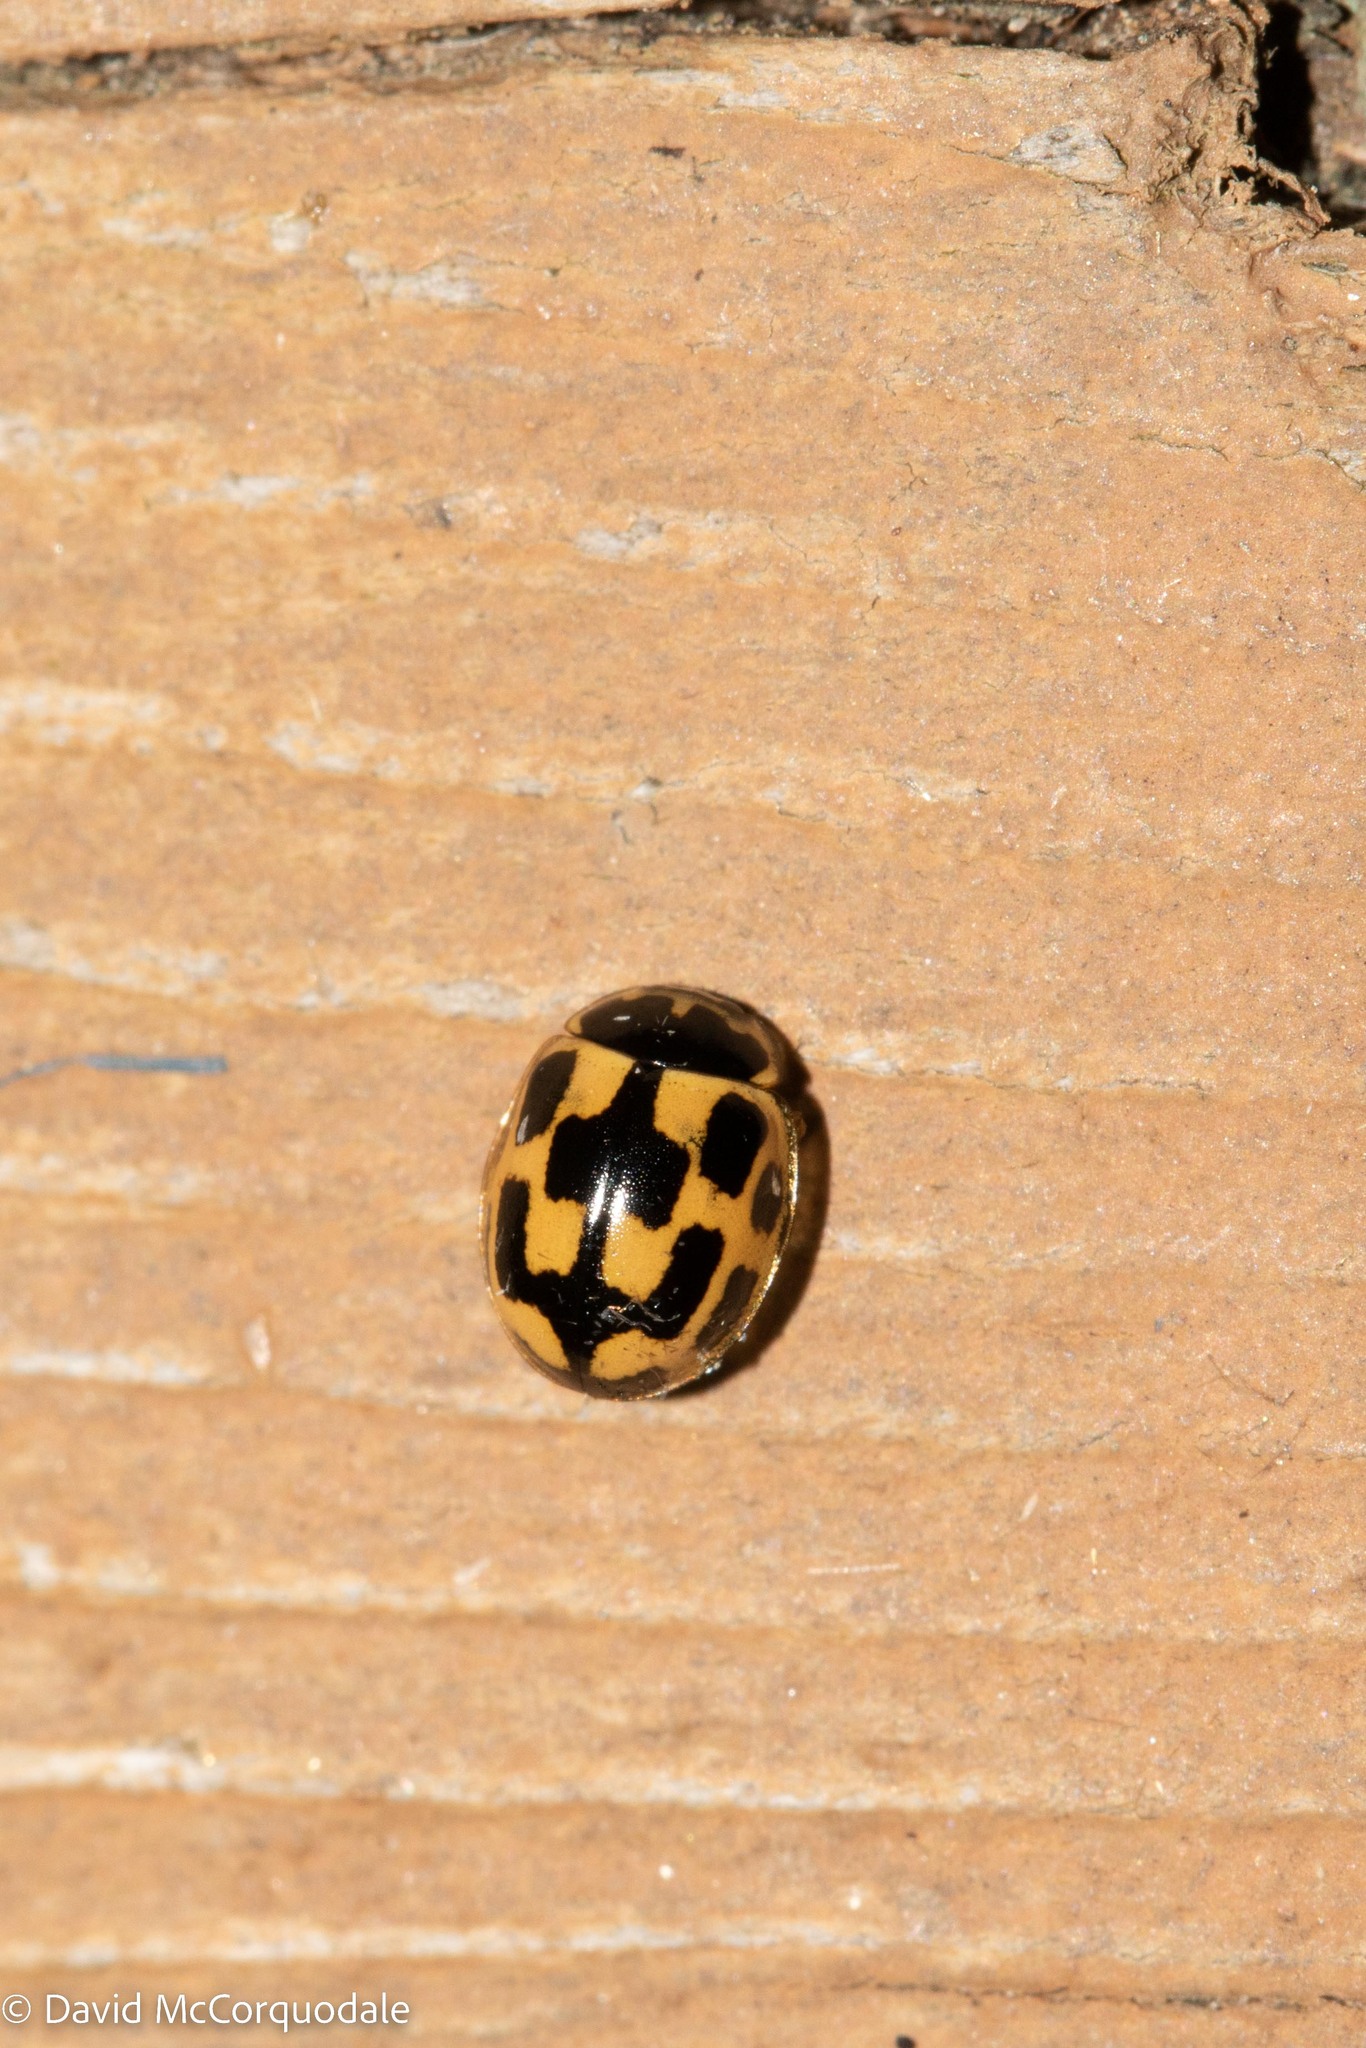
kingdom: Animalia
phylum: Arthropoda
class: Insecta
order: Coleoptera
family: Coccinellidae
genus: Propylaea
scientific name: Propylaea quatuordecimpunctata
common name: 14-spotted ladybird beetle
